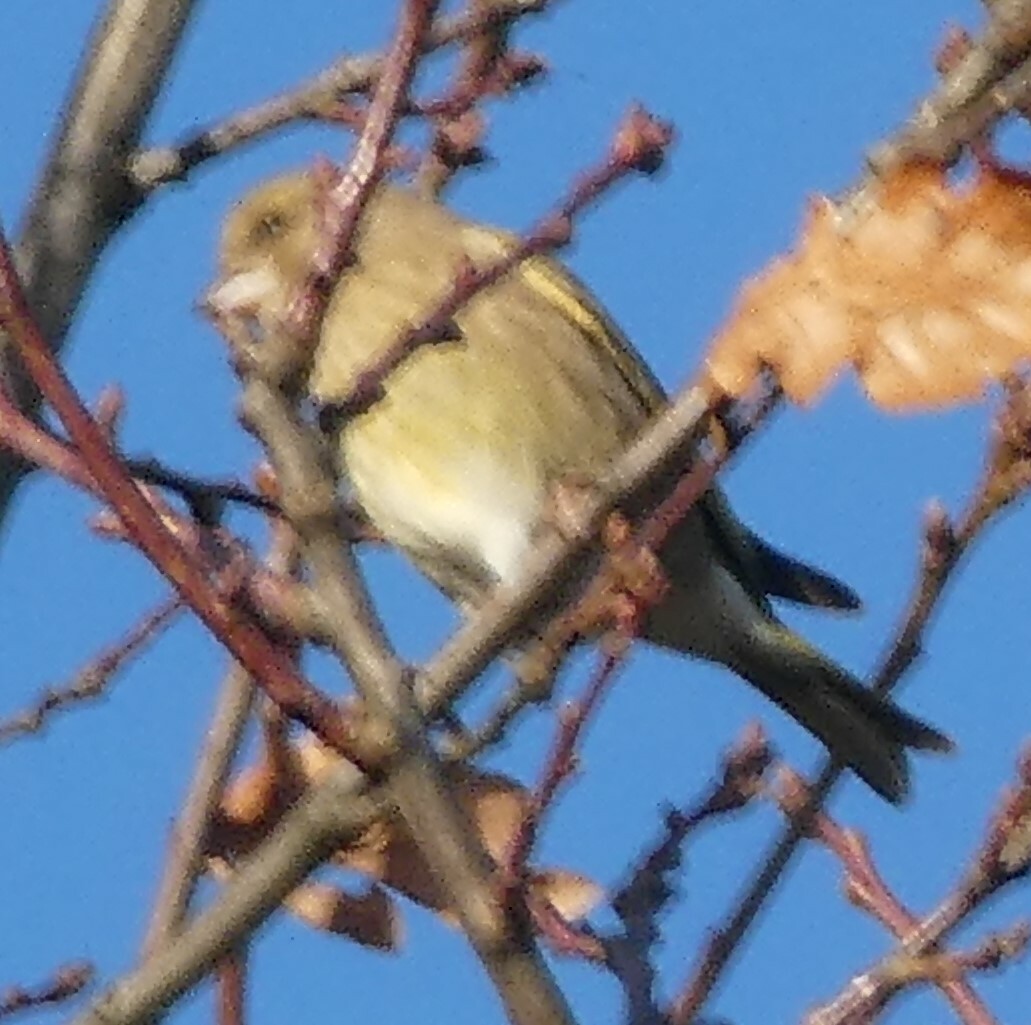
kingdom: Plantae
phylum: Tracheophyta
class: Liliopsida
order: Poales
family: Poaceae
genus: Chloris
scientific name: Chloris chloris
